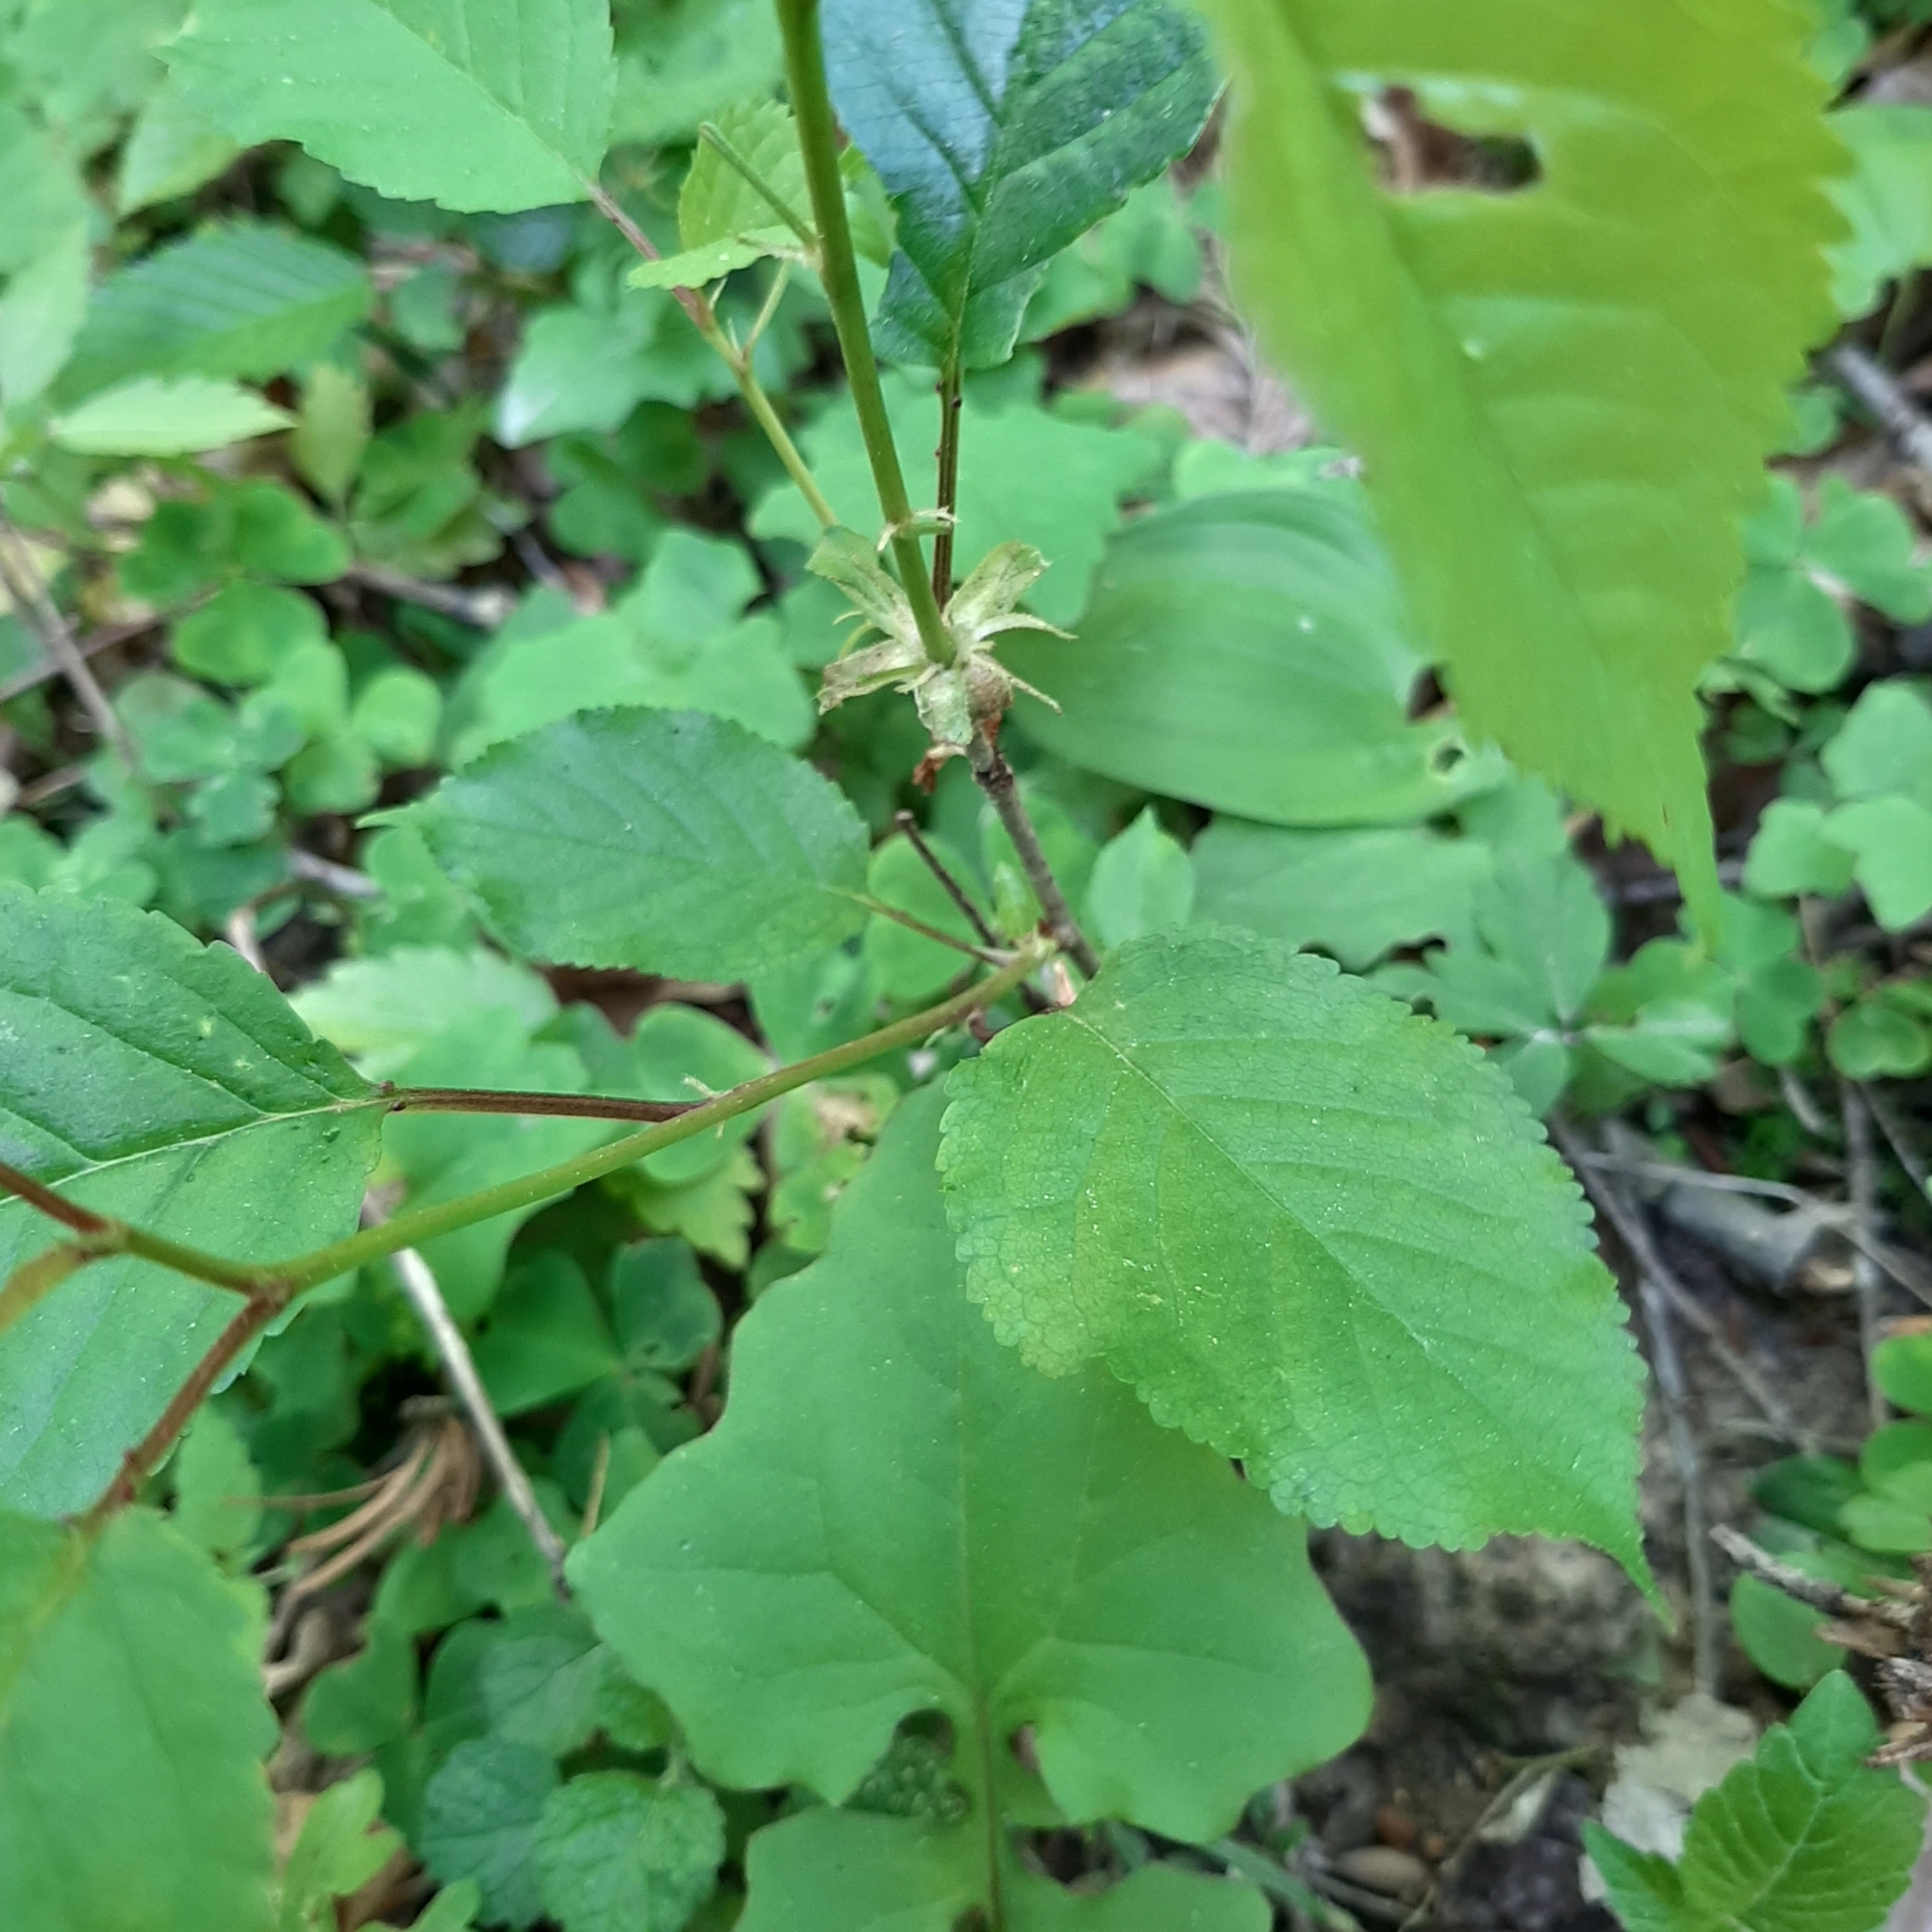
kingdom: Plantae
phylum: Tracheophyta
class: Magnoliopsida
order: Rosales
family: Rosaceae
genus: Prunus
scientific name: Prunus avium
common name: Sweet cherry
